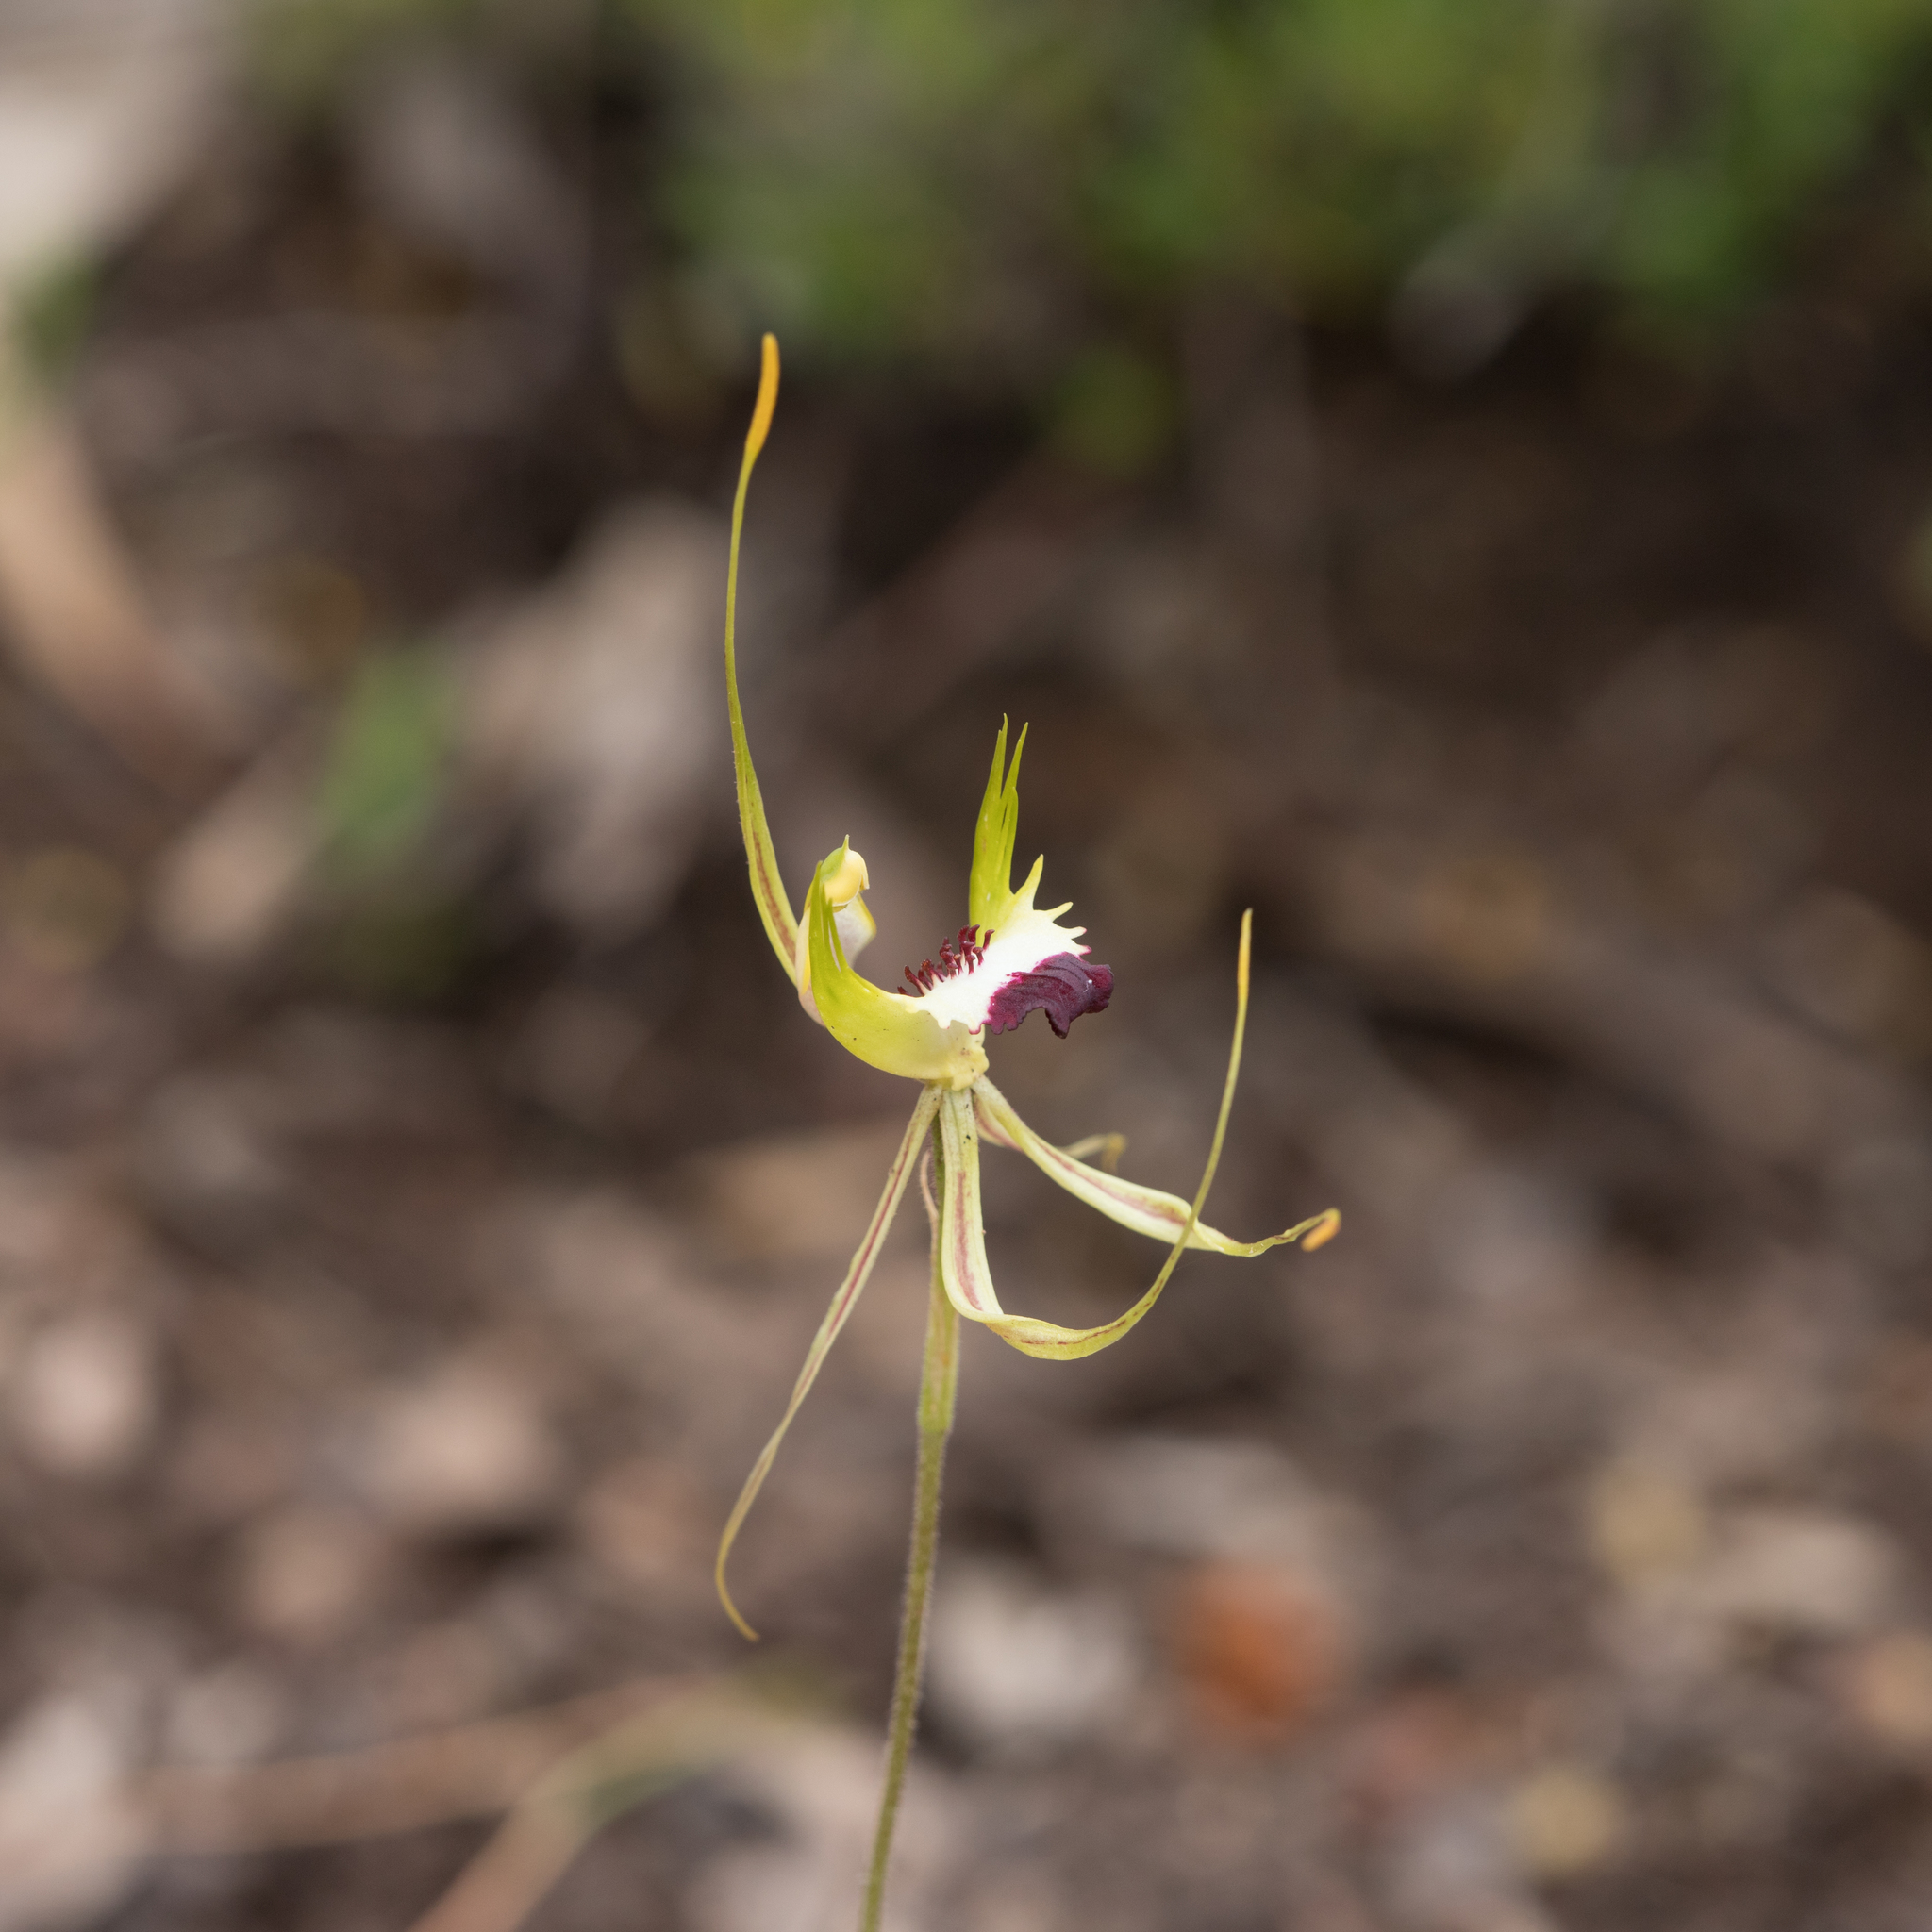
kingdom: Plantae
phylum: Tracheophyta
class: Liliopsida
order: Asparagales
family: Orchidaceae
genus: Caladenia
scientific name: Caladenia tentaculata
